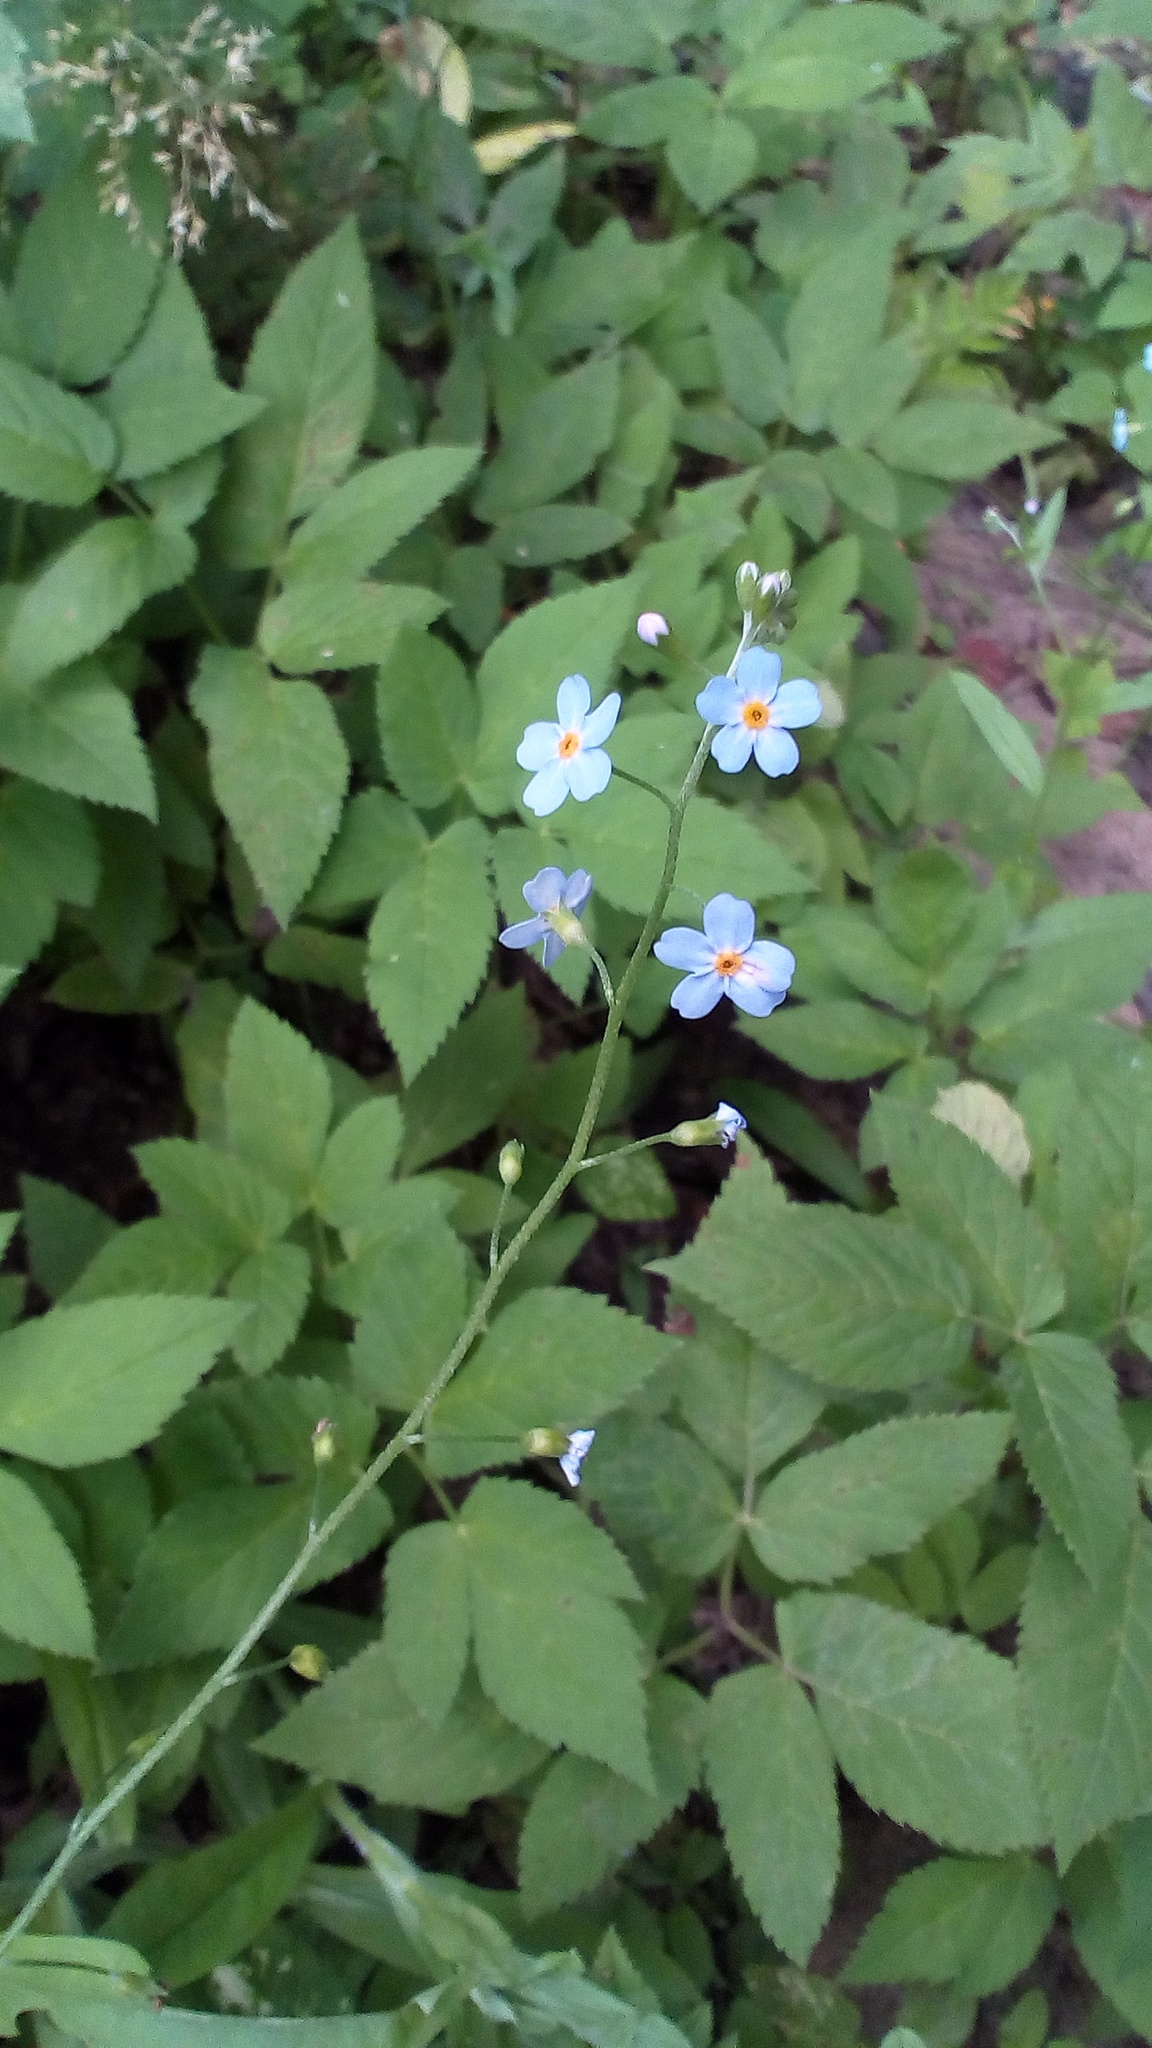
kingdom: Plantae
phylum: Tracheophyta
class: Magnoliopsida
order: Boraginales
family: Boraginaceae
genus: Myosotis
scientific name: Myosotis scorpioides
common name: Water forget-me-not
